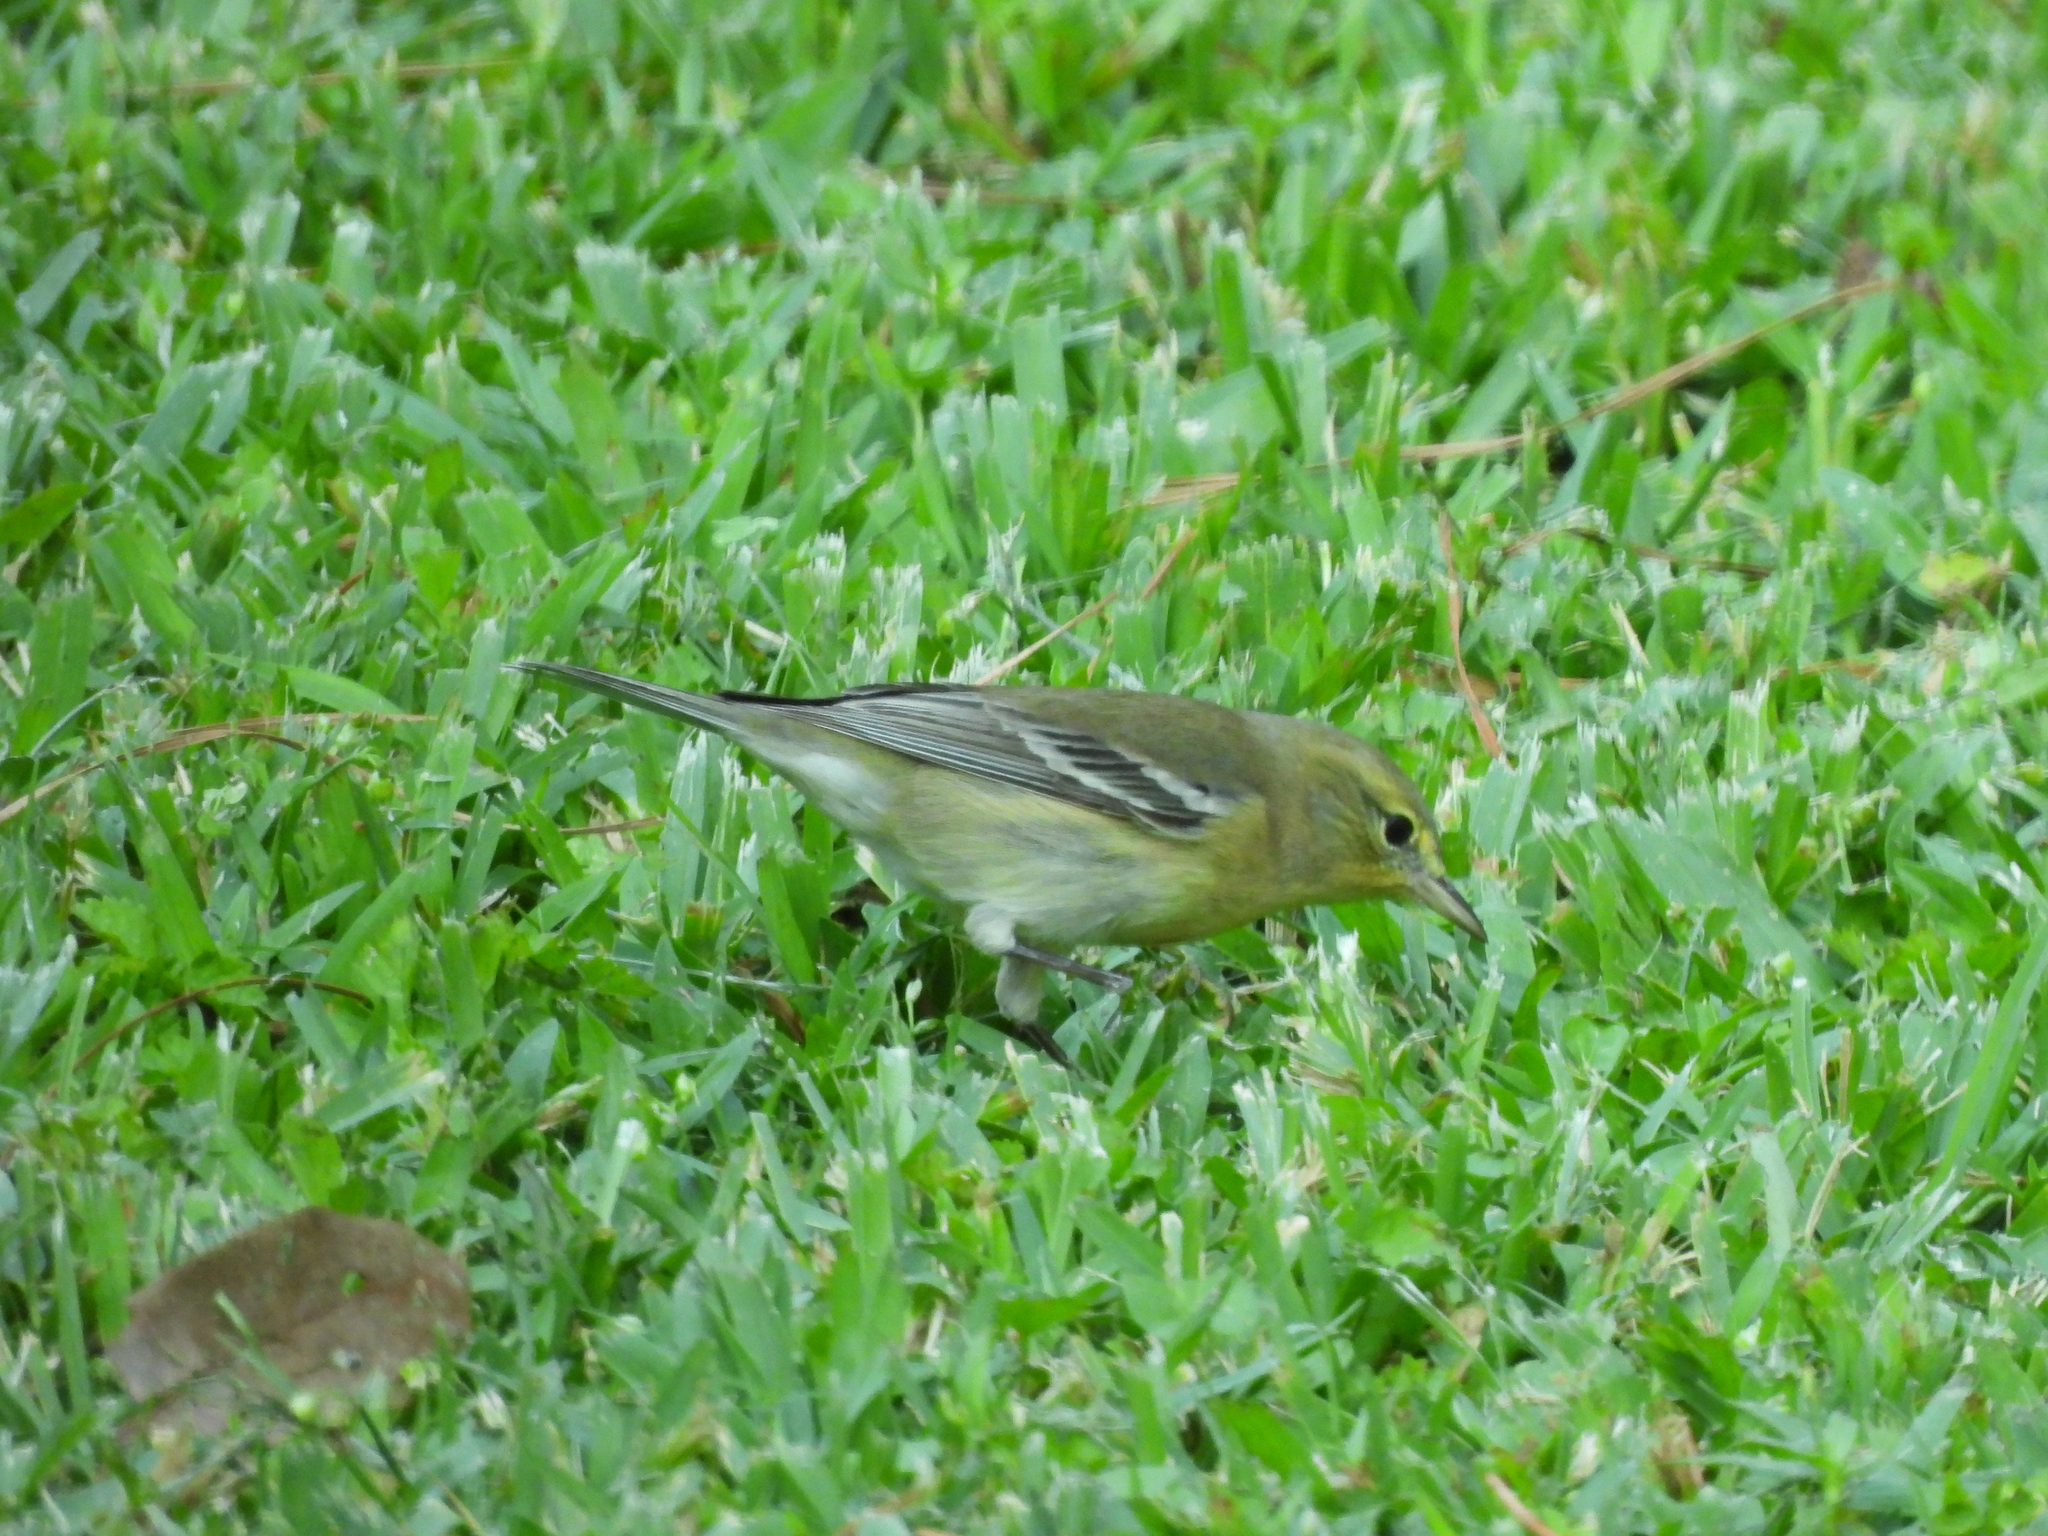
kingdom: Animalia
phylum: Chordata
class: Aves
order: Passeriformes
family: Parulidae
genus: Setophaga
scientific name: Setophaga pinus
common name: Pine warbler
